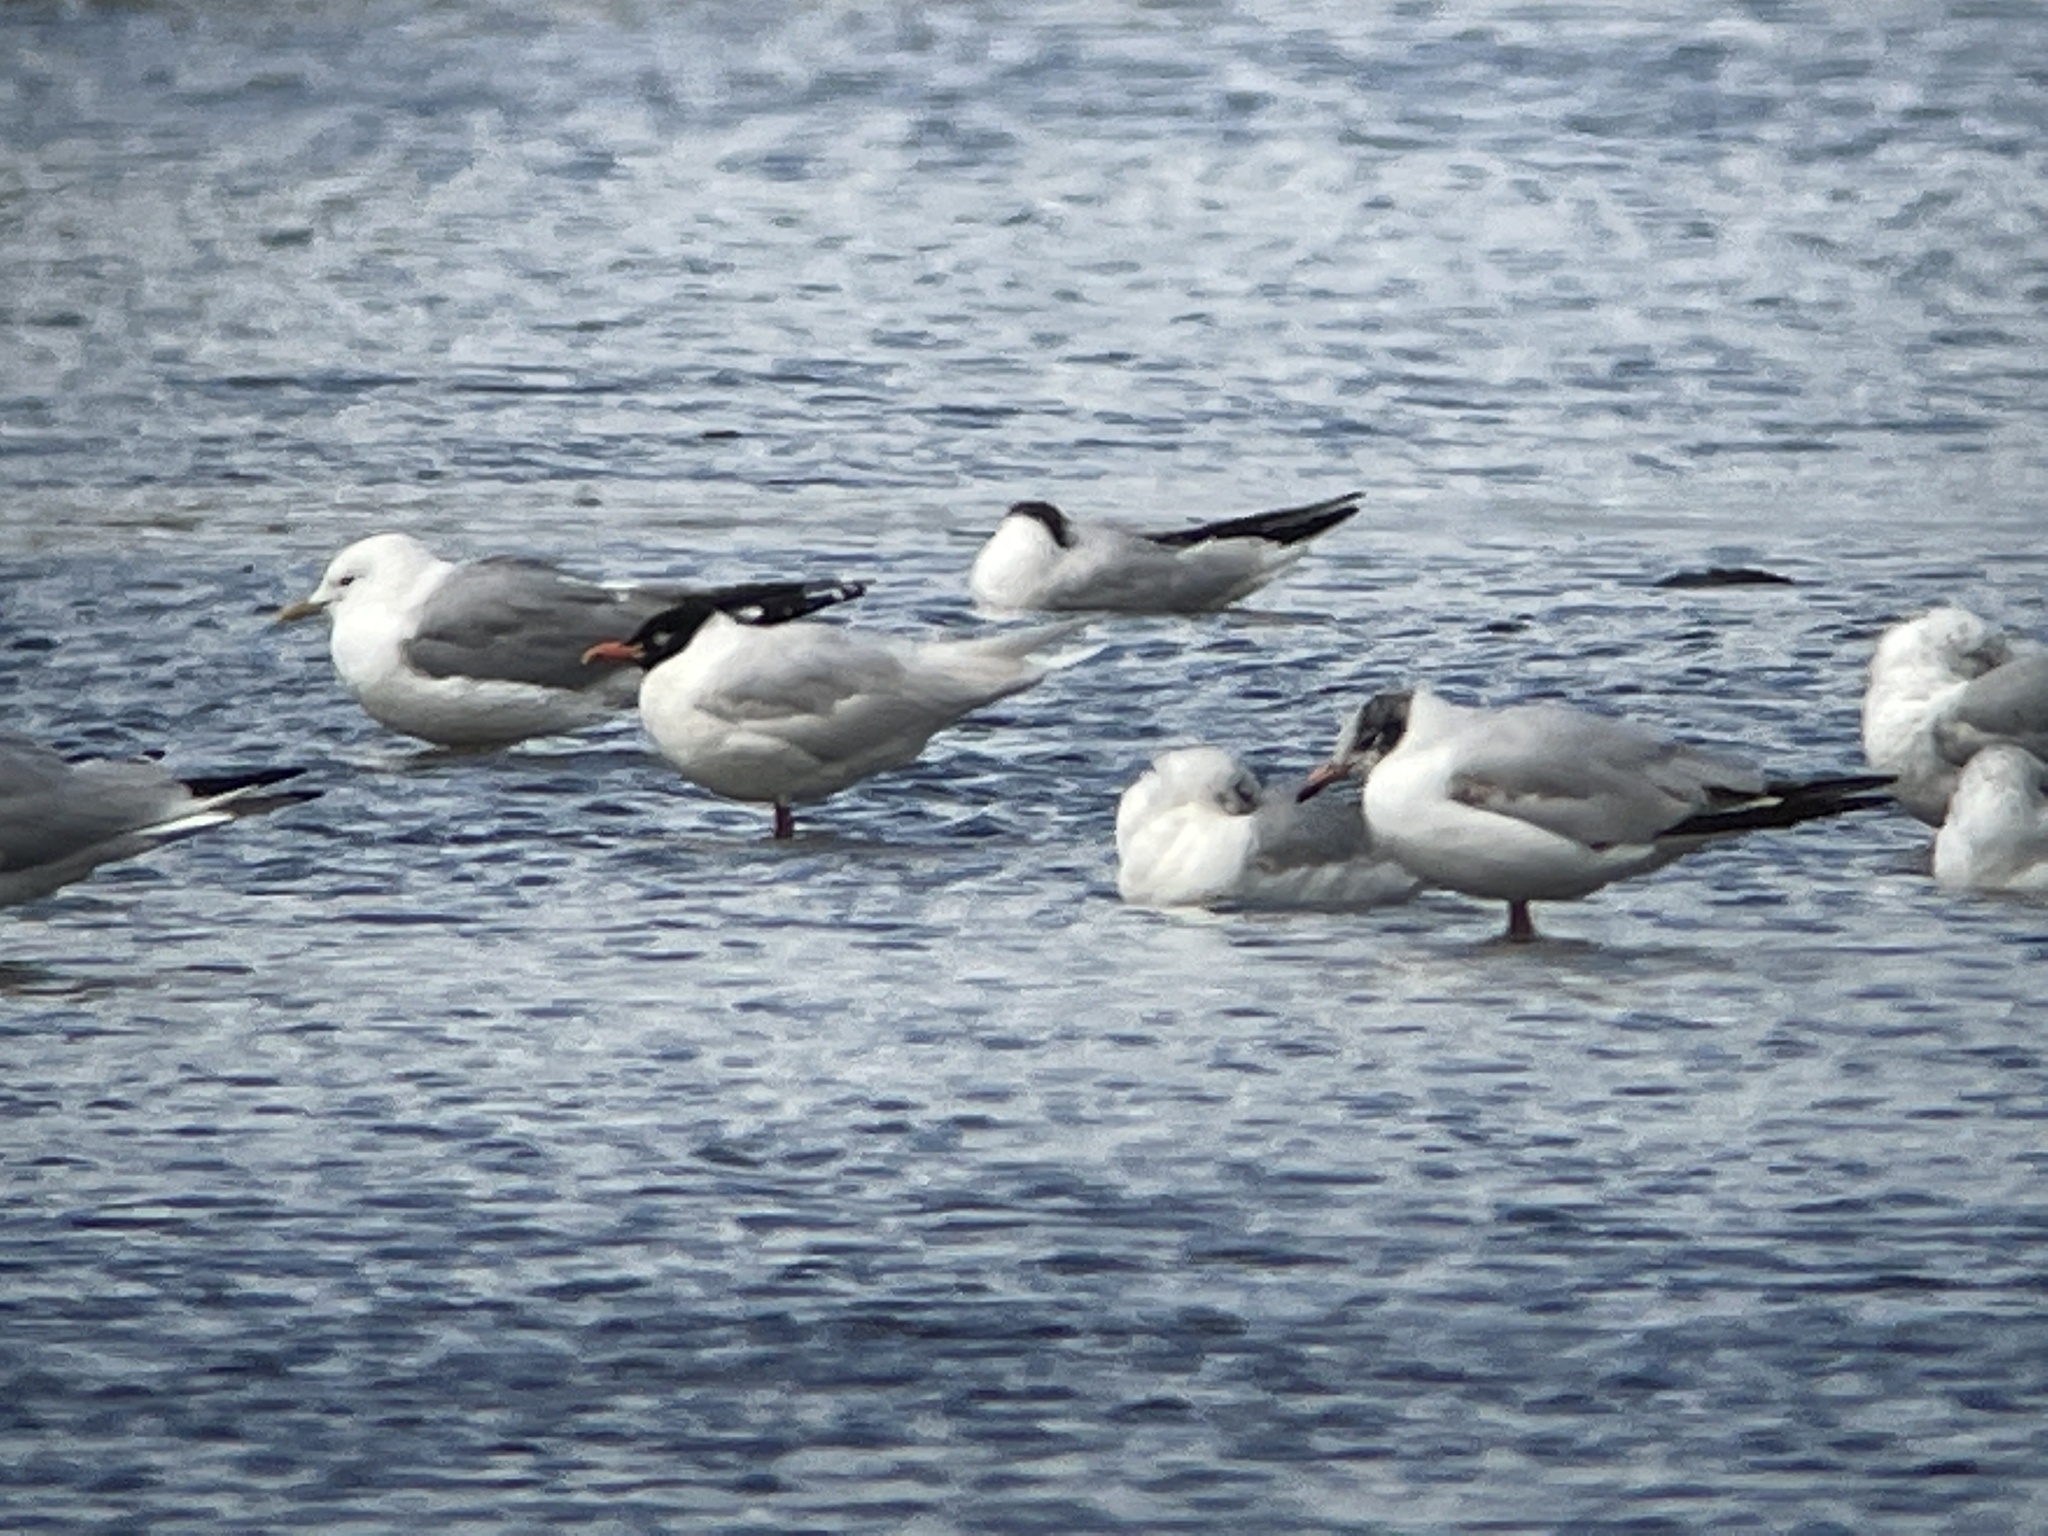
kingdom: Animalia
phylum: Chordata
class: Aves
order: Charadriiformes
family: Laridae
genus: Ichthyaetus
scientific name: Ichthyaetus melanocephalus
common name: Mediterranean gull
